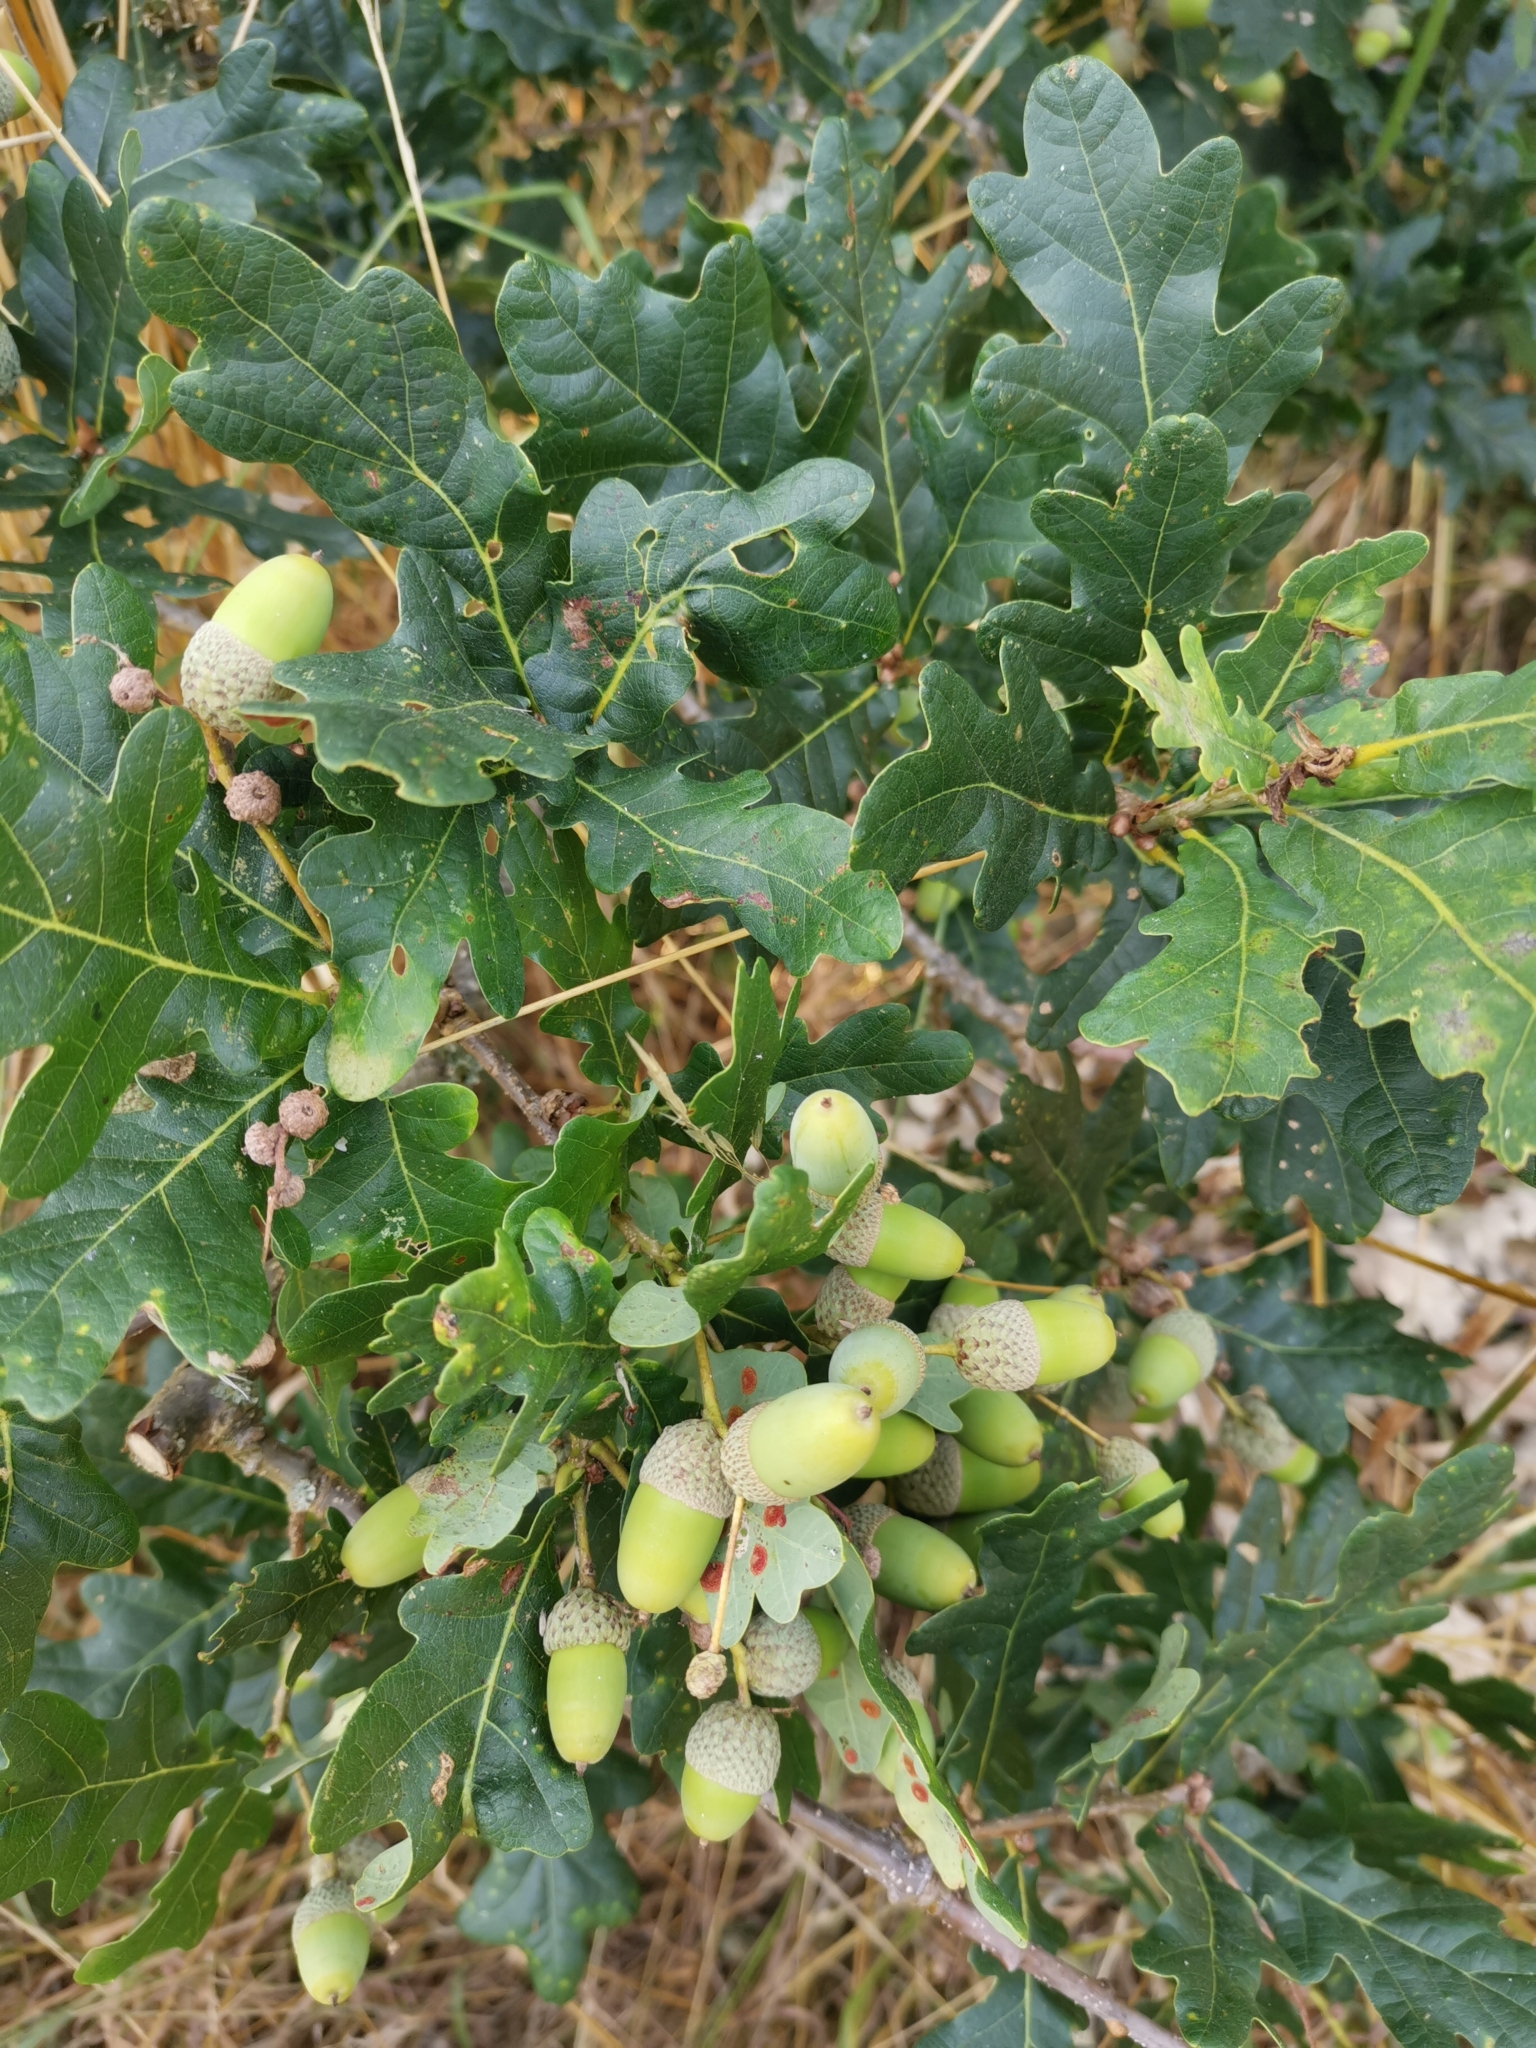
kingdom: Plantae
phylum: Tracheophyta
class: Magnoliopsida
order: Fagales
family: Fagaceae
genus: Quercus
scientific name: Quercus robur
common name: Pedunculate oak
